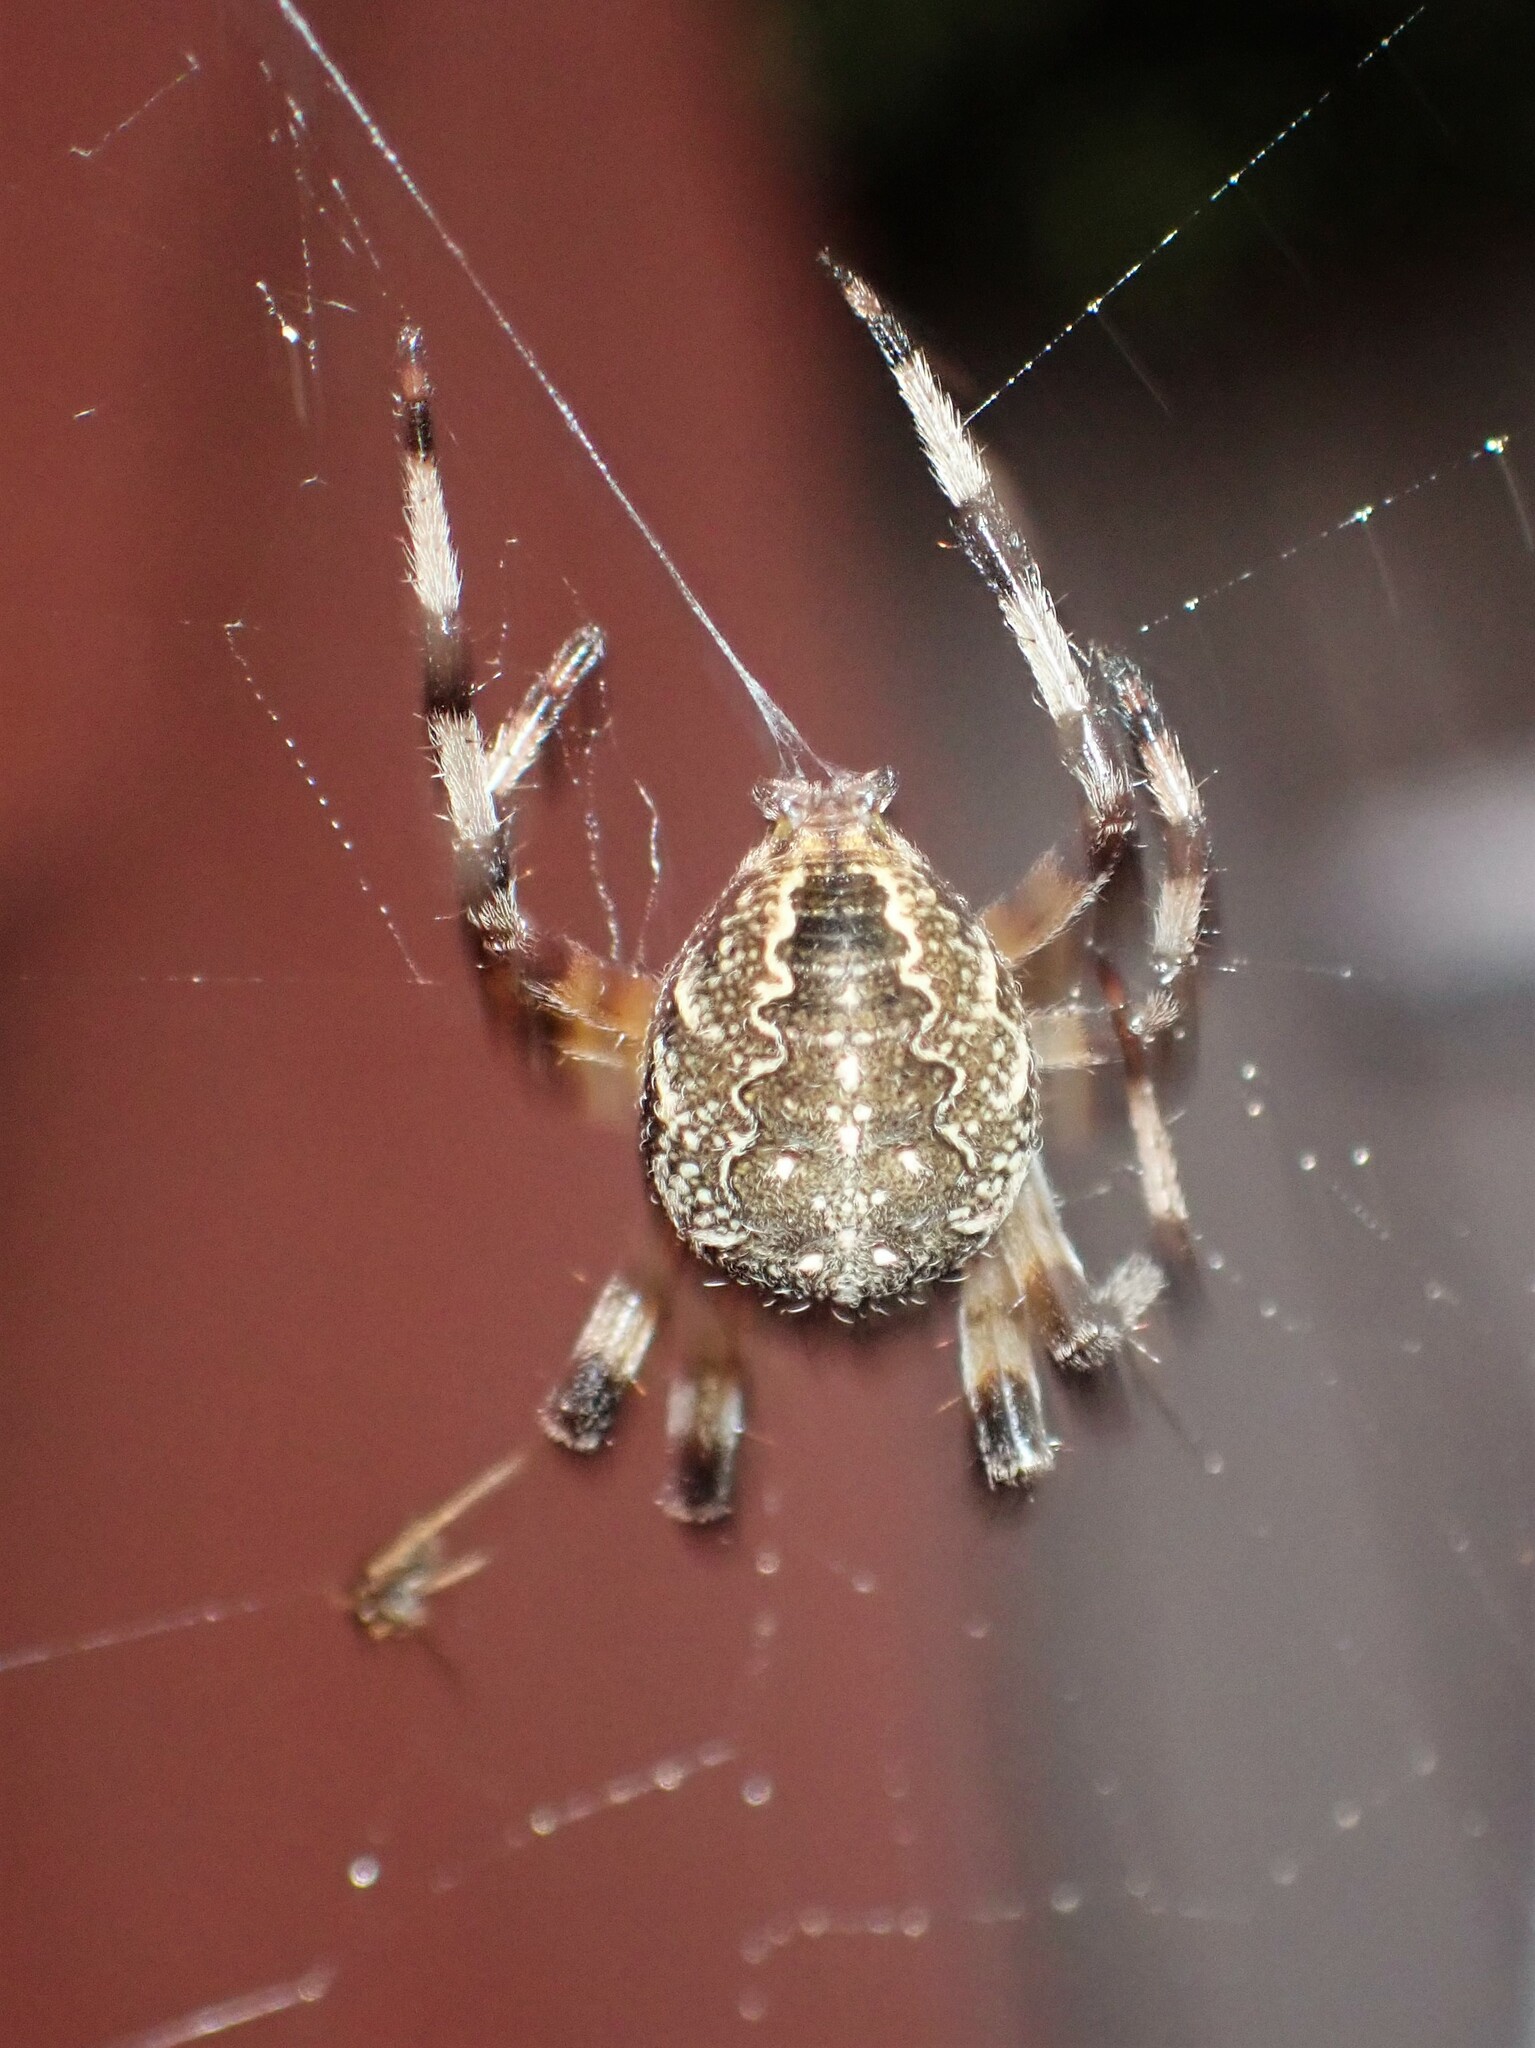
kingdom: Animalia
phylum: Arthropoda
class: Arachnida
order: Araneae
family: Araneidae
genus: Araneus
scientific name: Araneus marmoreus
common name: Marbled orbweaver
